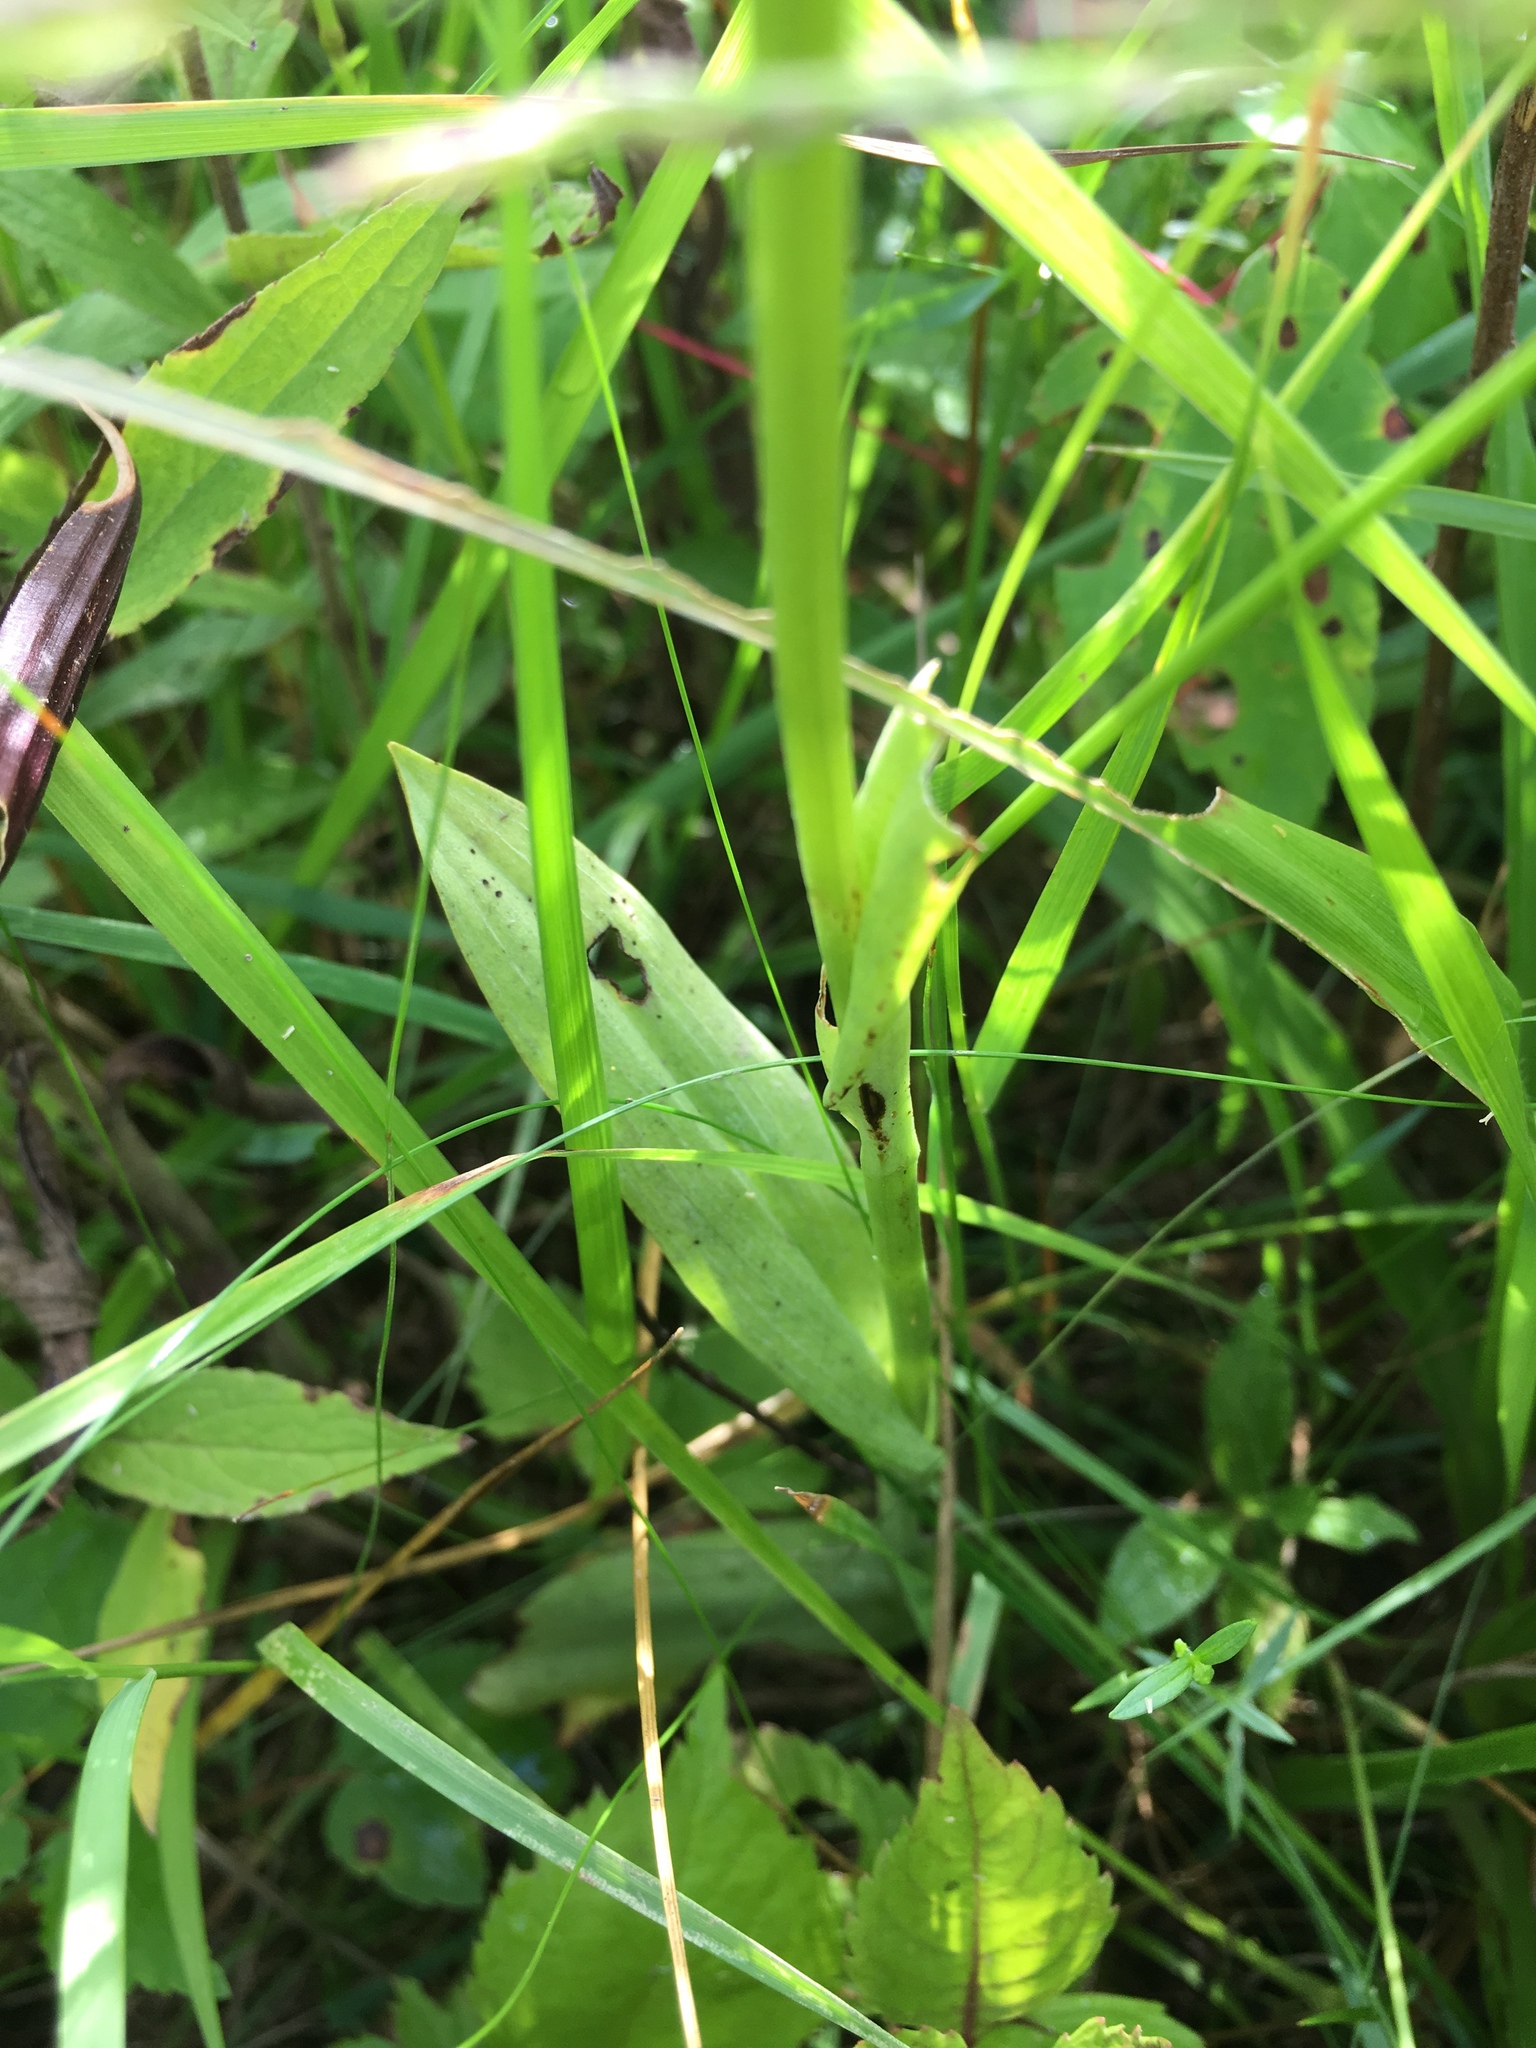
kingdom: Plantae
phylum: Tracheophyta
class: Liliopsida
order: Asparagales
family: Orchidaceae
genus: Platanthera
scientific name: Platanthera lacera
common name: Green fringed orchid
